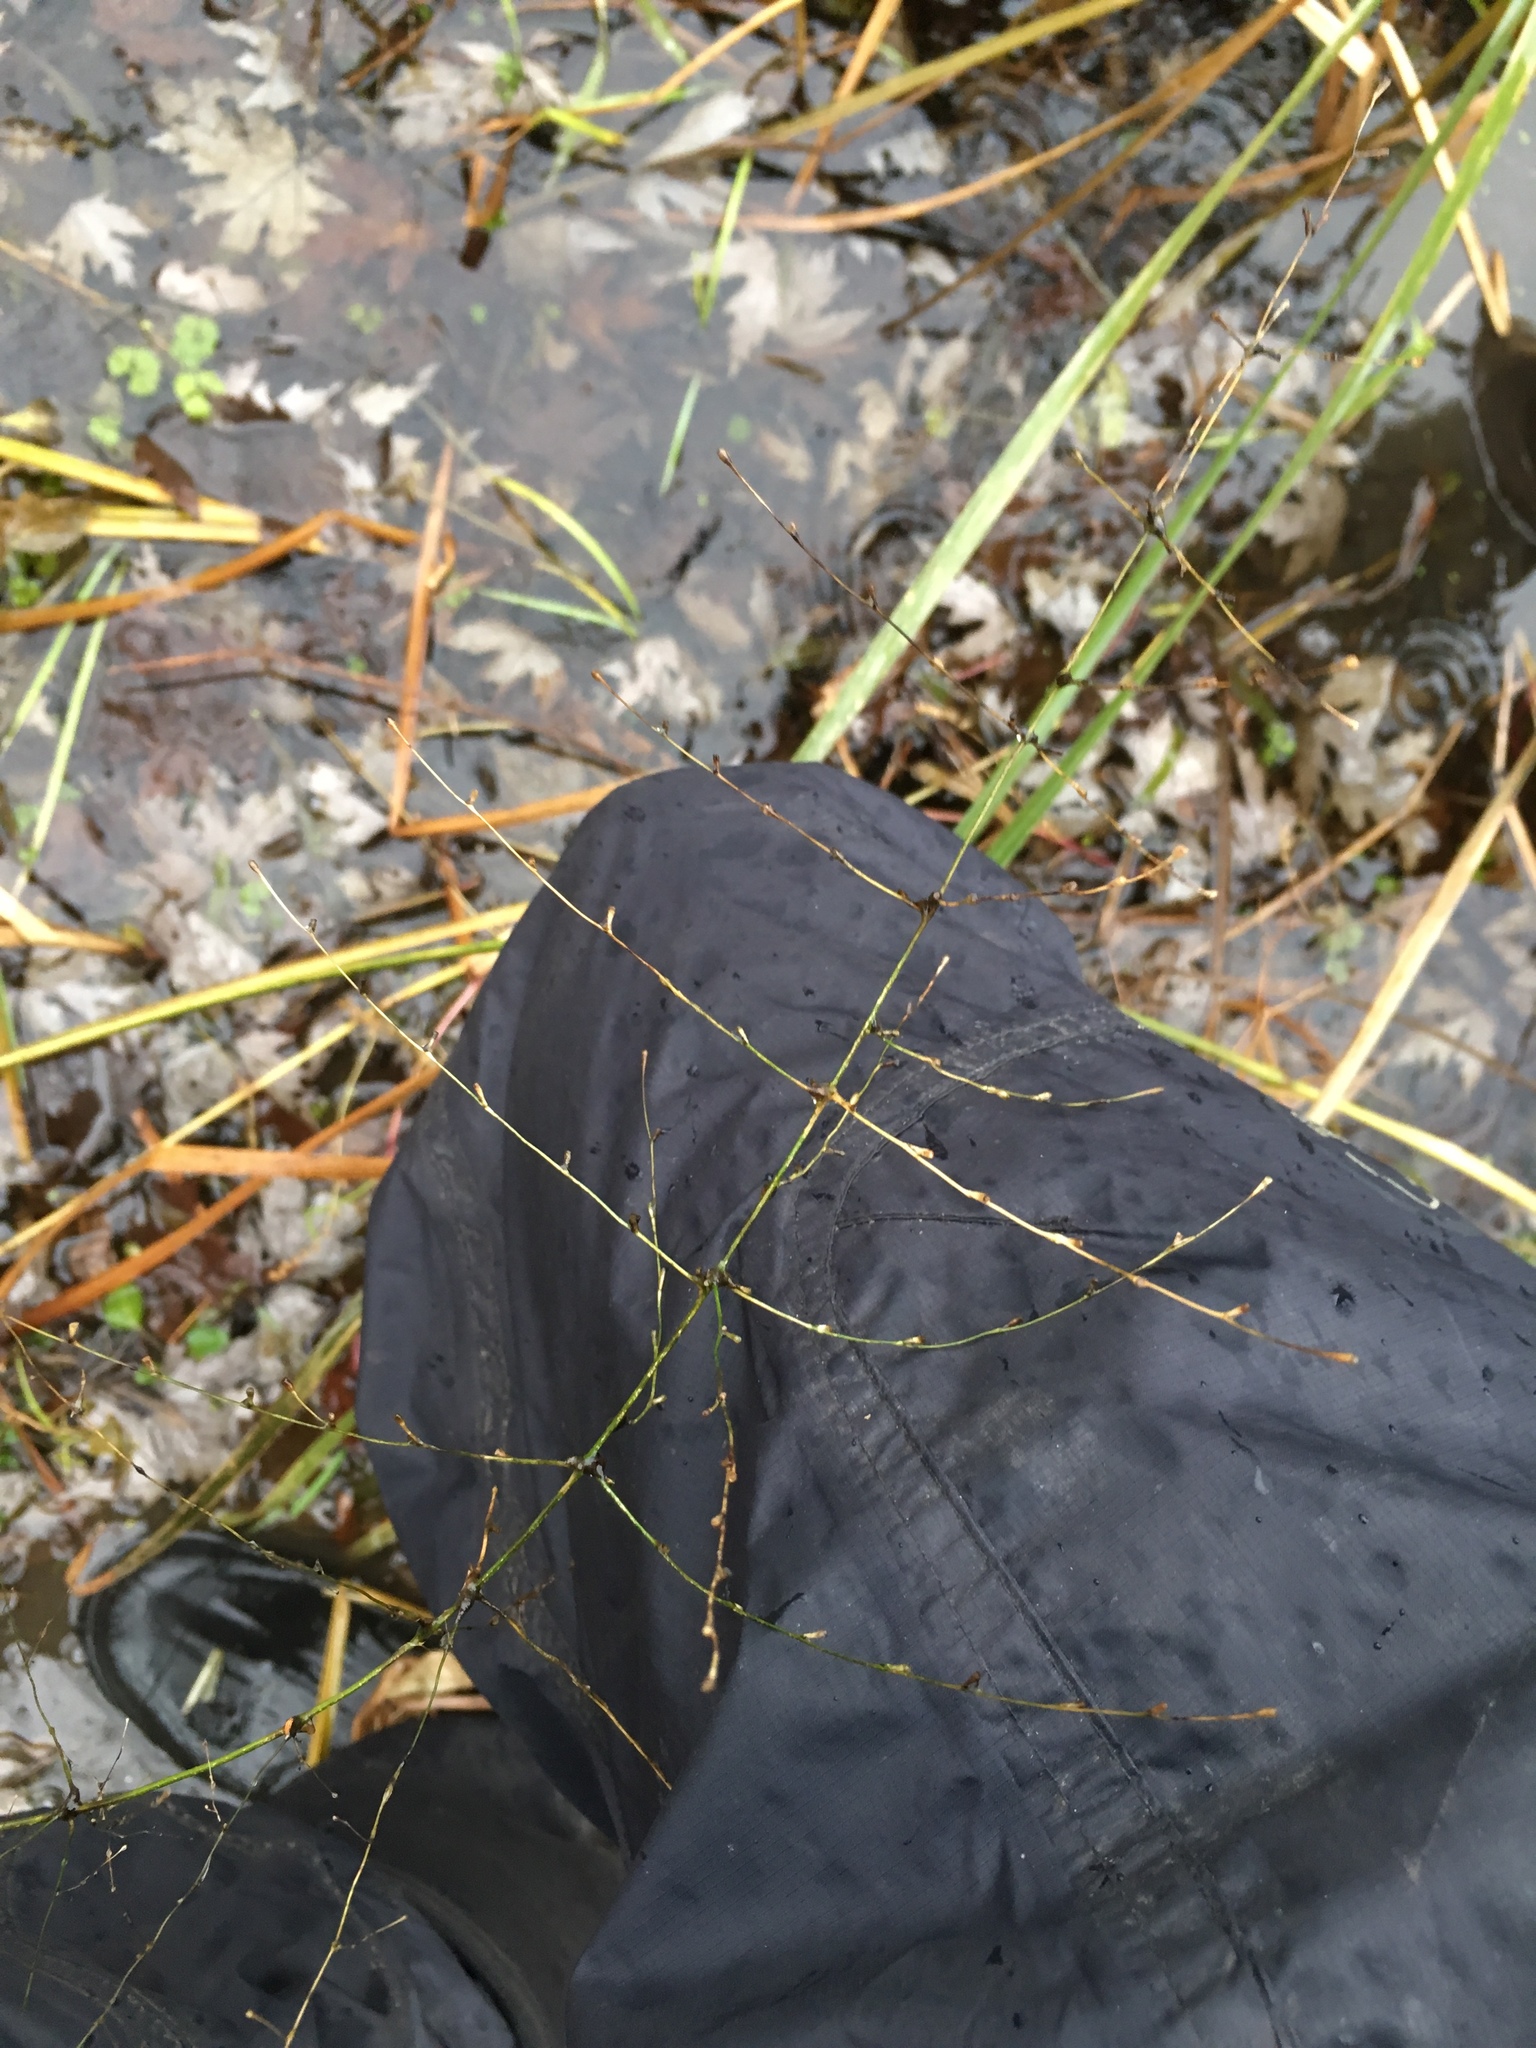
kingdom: Plantae
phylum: Tracheophyta
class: Liliopsida
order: Poales
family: Poaceae
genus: Zizania
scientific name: Zizania aquatica
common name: Annual wildrice
